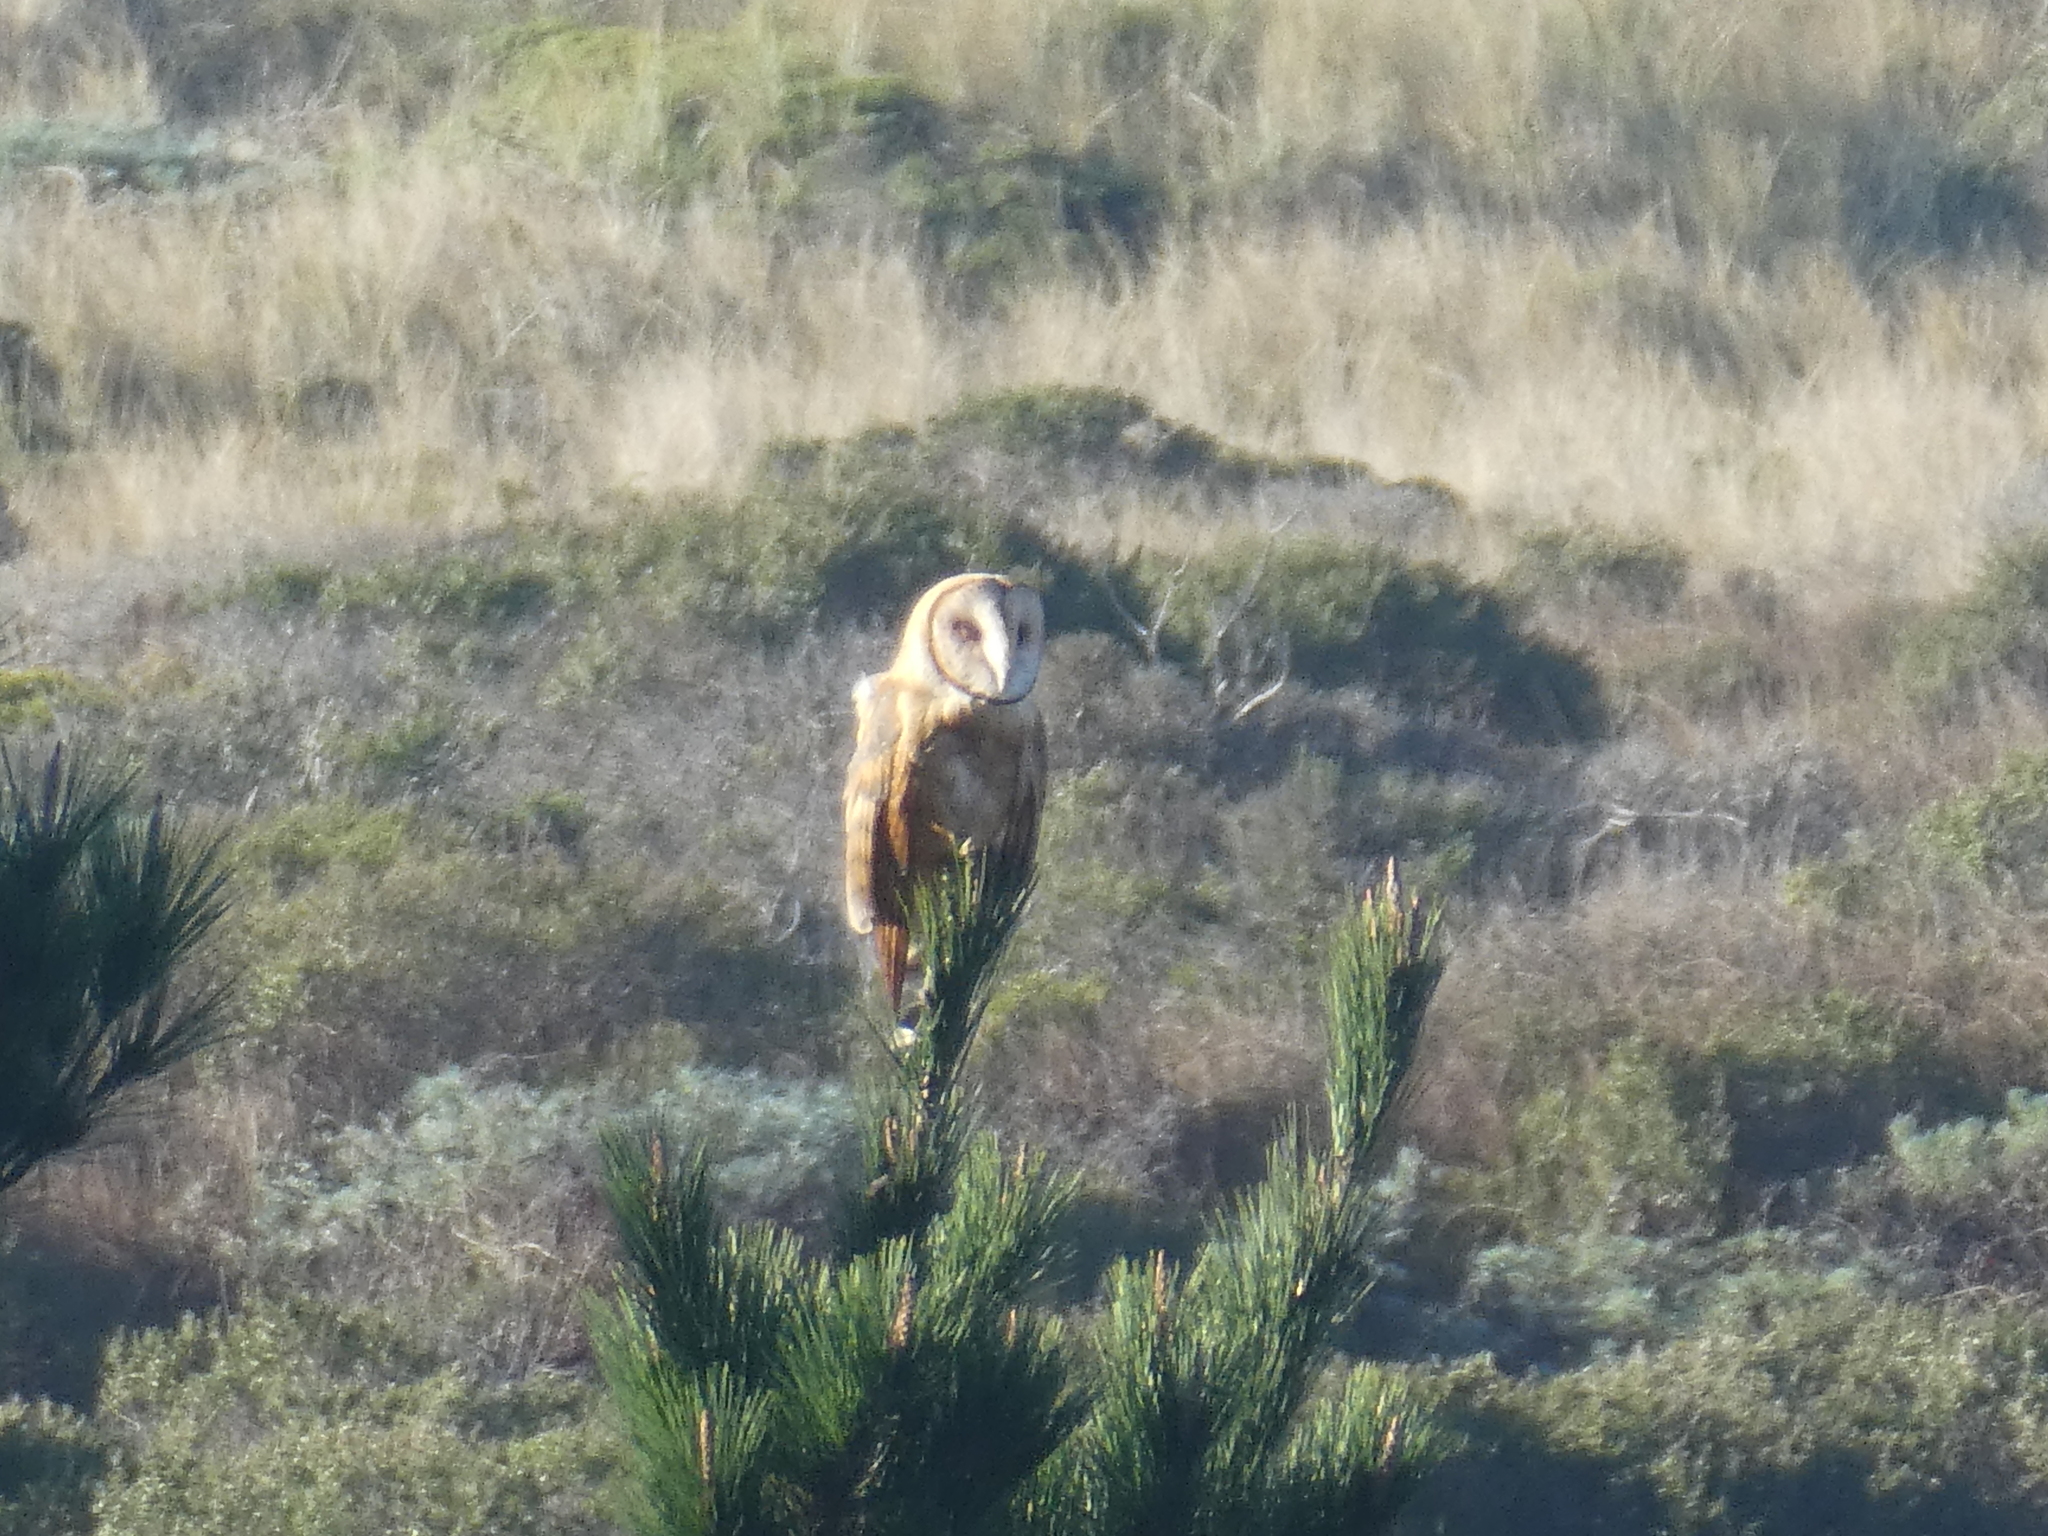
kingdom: Animalia
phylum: Chordata
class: Aves
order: Strigiformes
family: Tytonidae
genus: Tyto
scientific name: Tyto alba
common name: Barn owl
